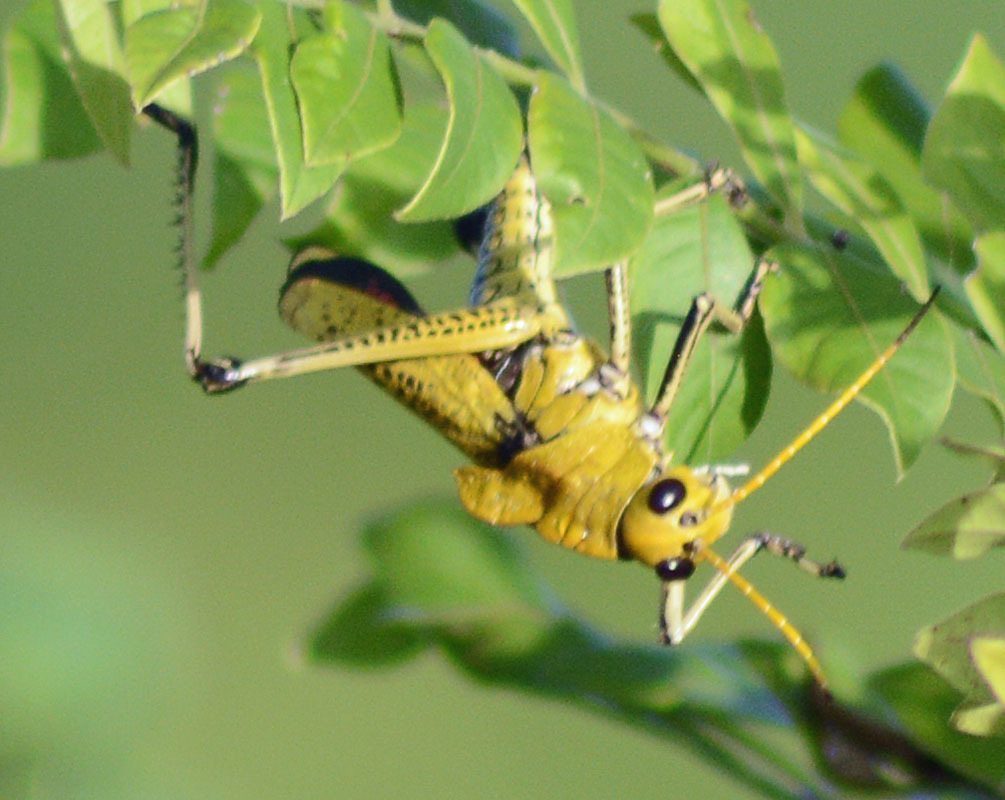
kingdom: Animalia
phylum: Arthropoda
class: Insecta
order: Orthoptera
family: Romaleidae
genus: Romalea
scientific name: Romalea
